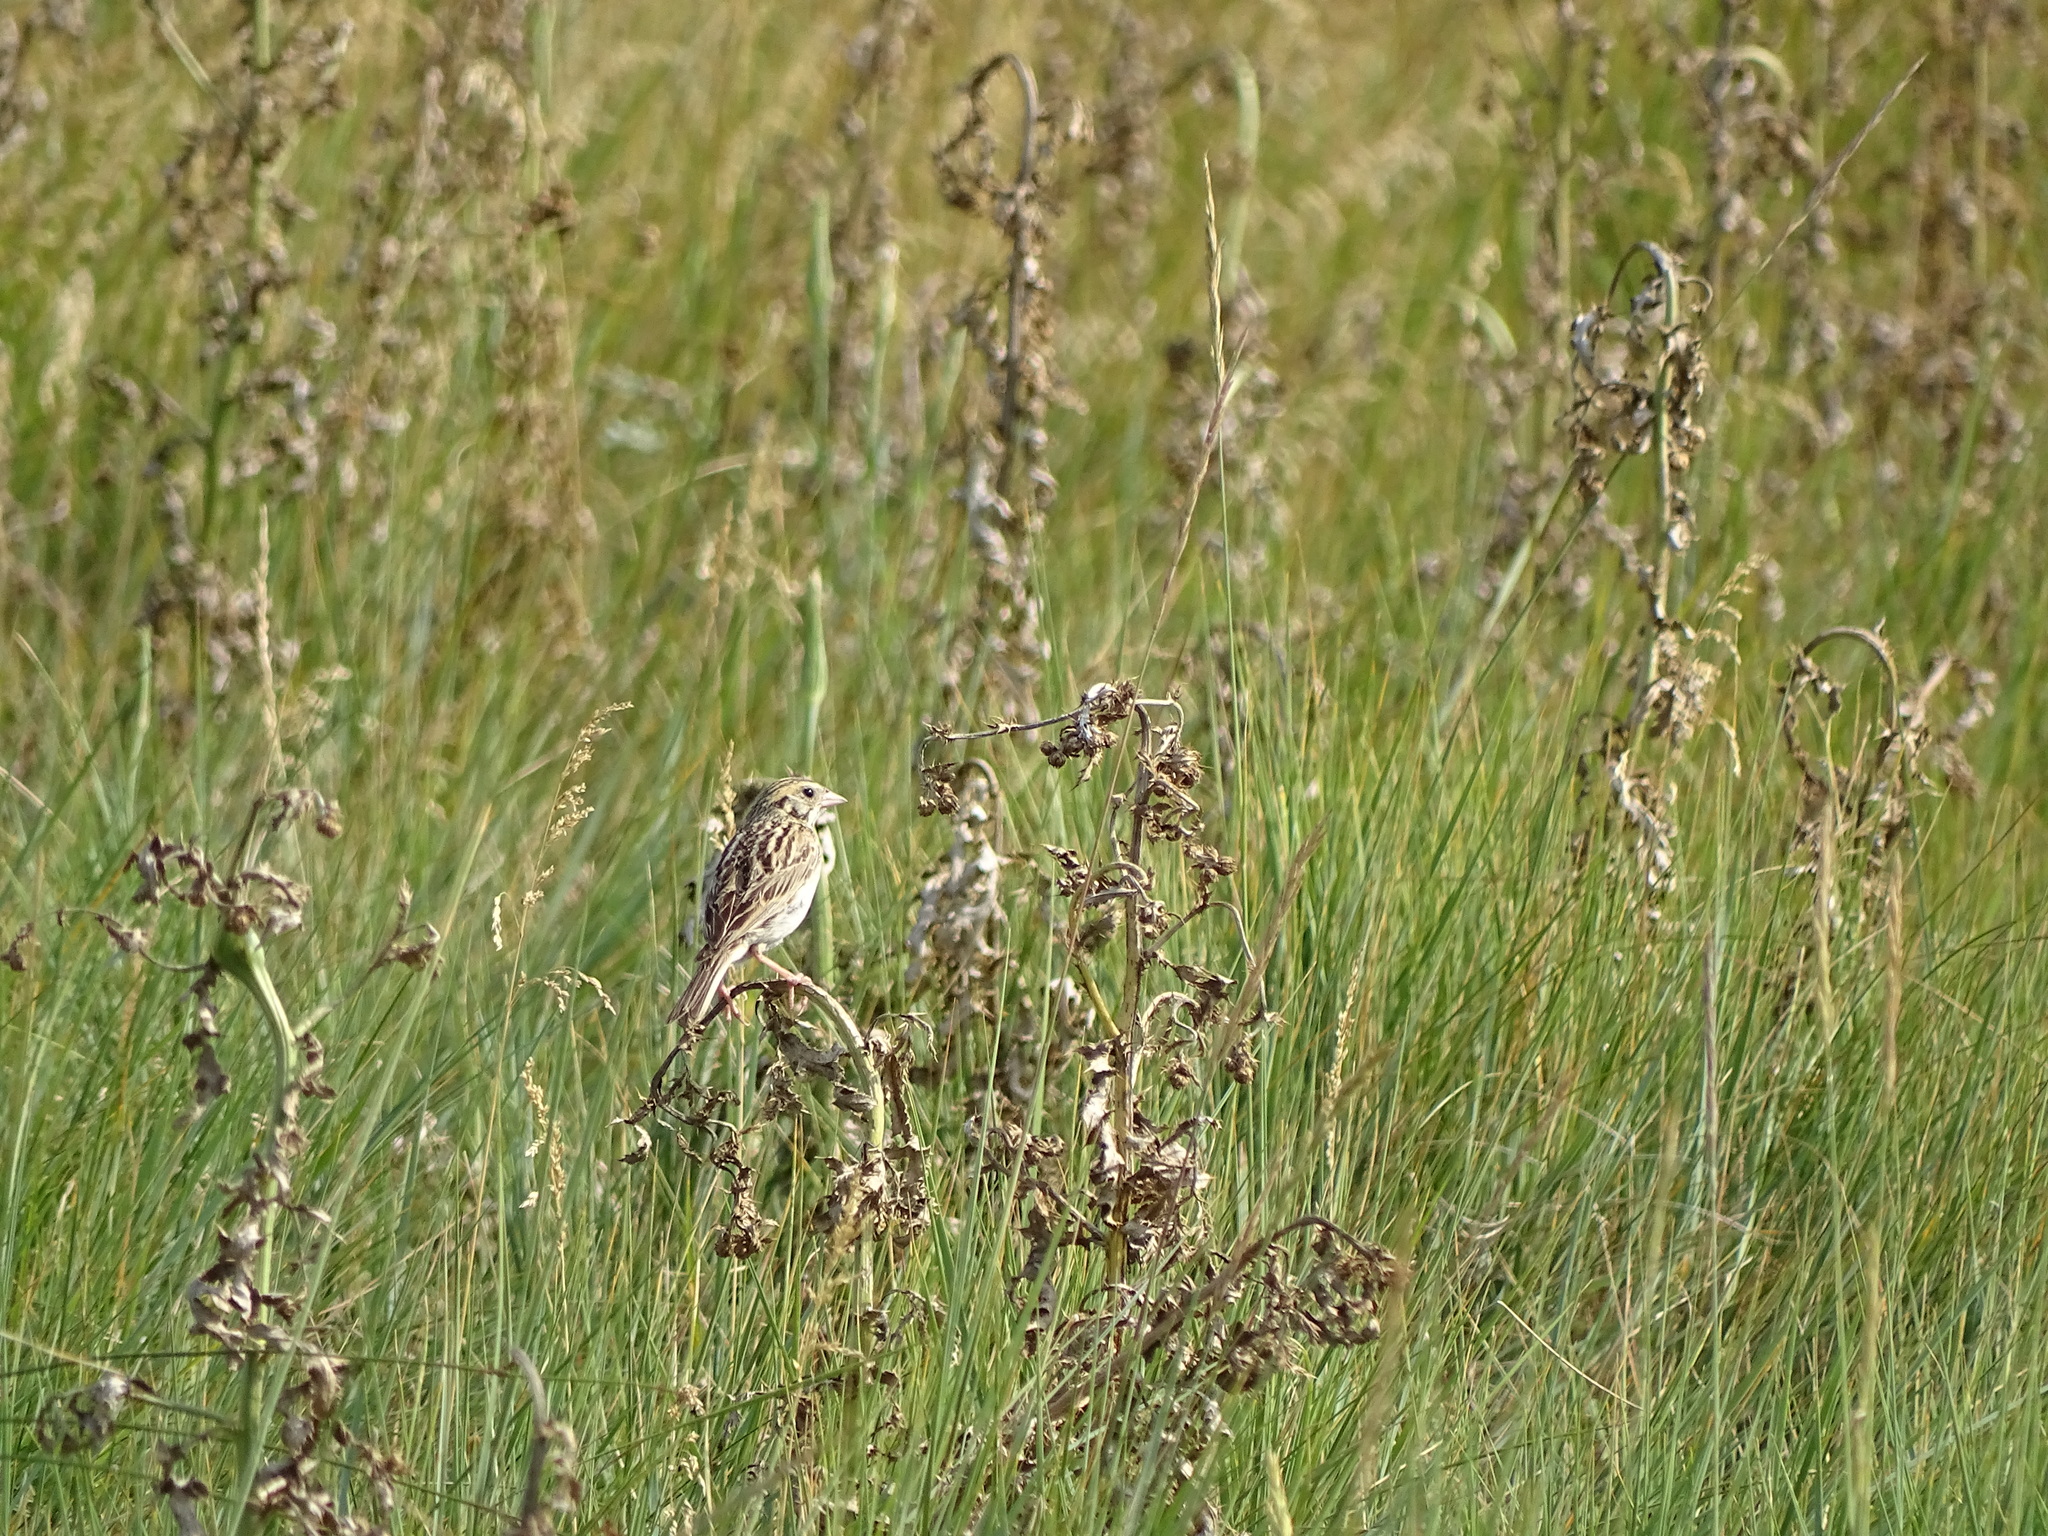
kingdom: Animalia
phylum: Chordata
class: Aves
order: Passeriformes
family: Passerellidae
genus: Centronyx
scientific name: Centronyx bairdii
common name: Baird's sparrow
